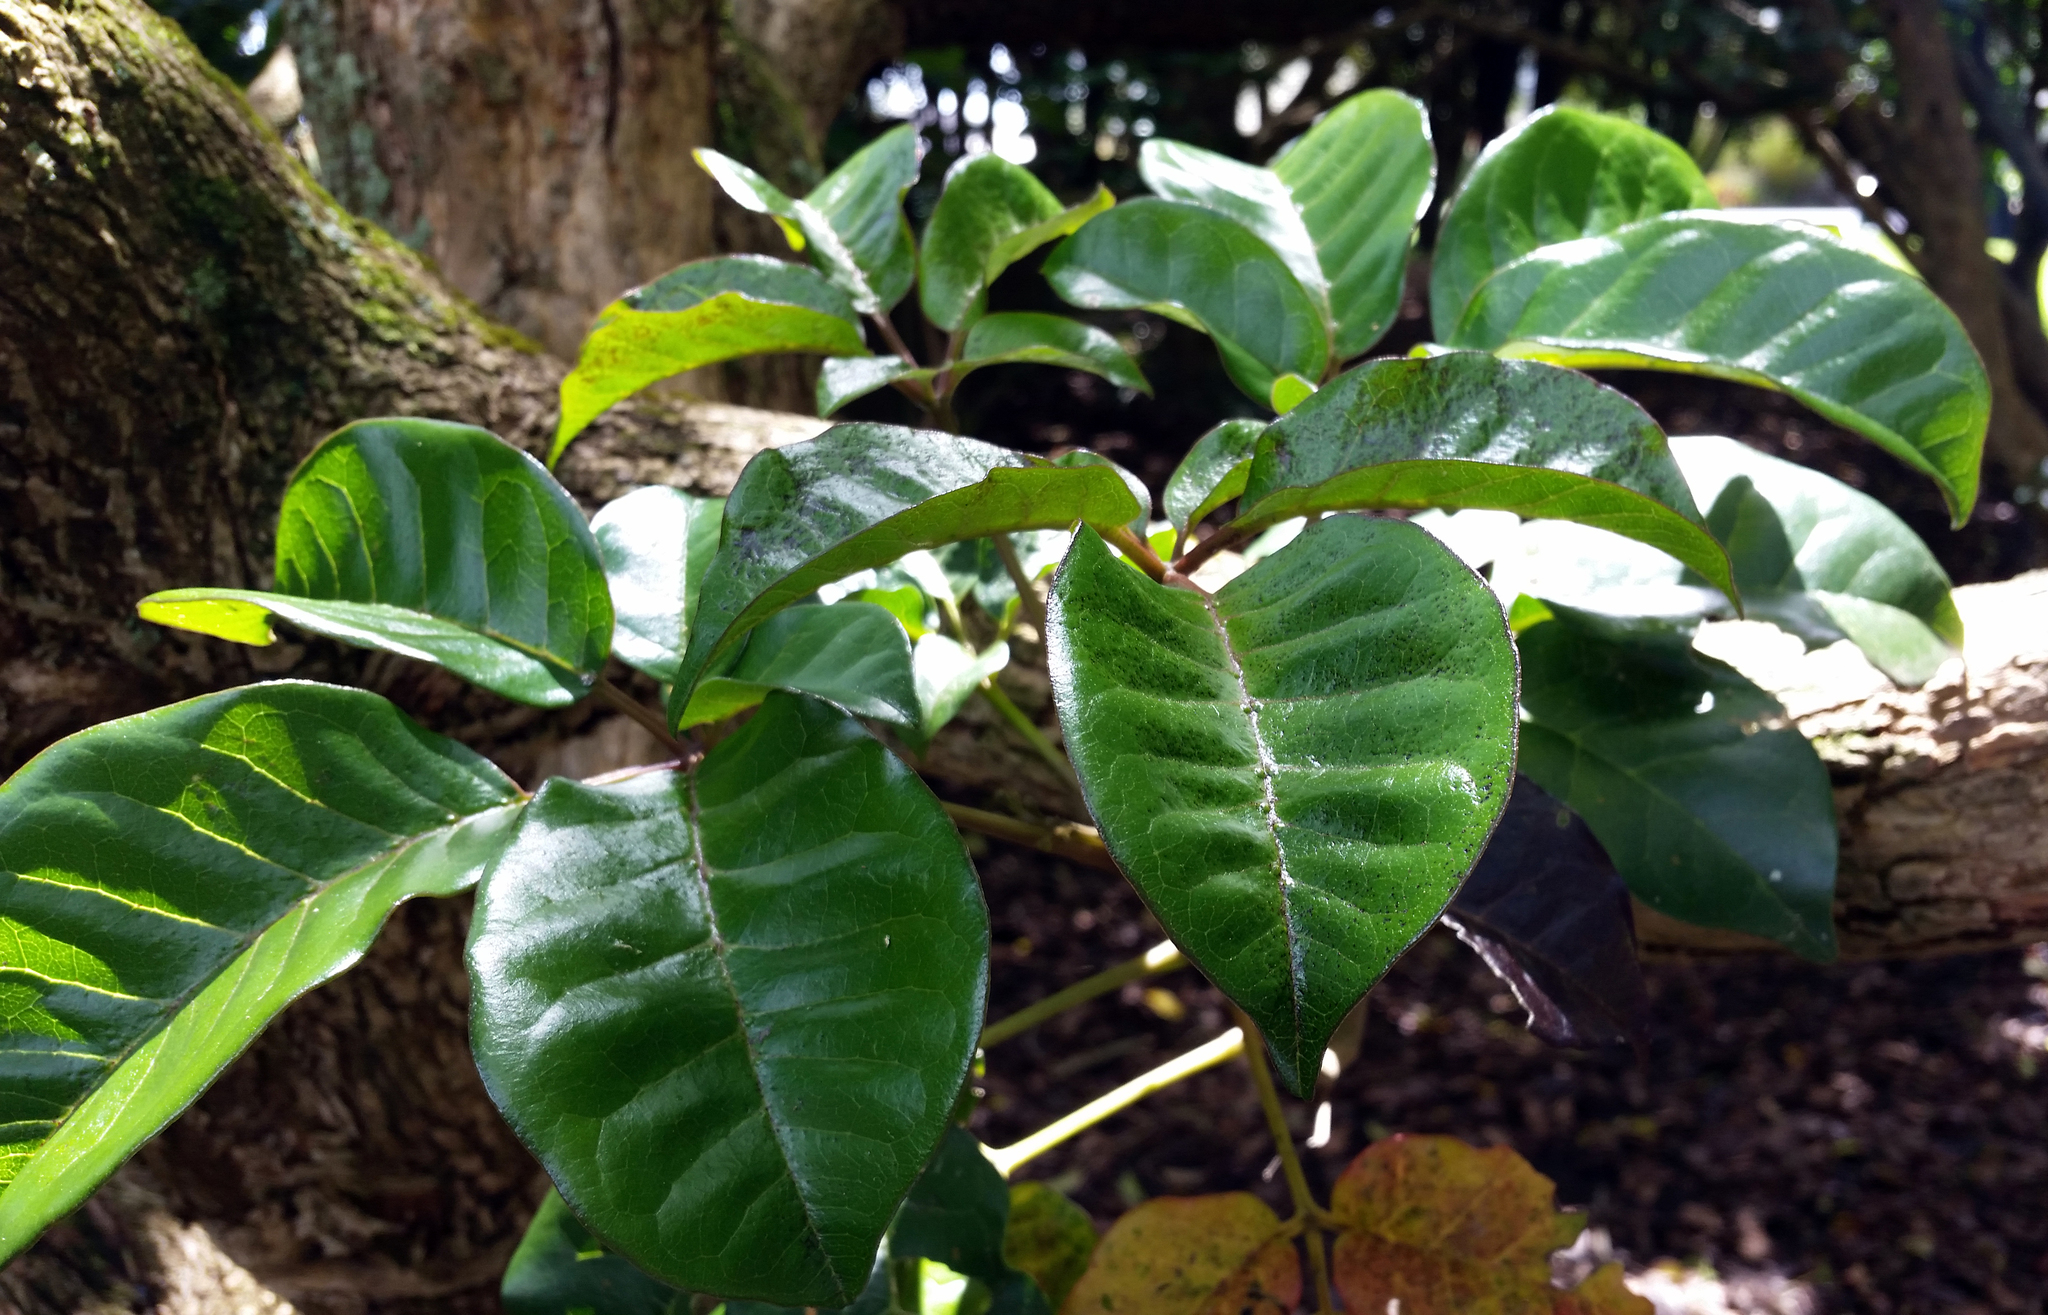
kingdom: Plantae
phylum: Tracheophyta
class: Magnoliopsida
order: Lamiales
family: Lamiaceae
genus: Vitex
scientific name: Vitex lucens
